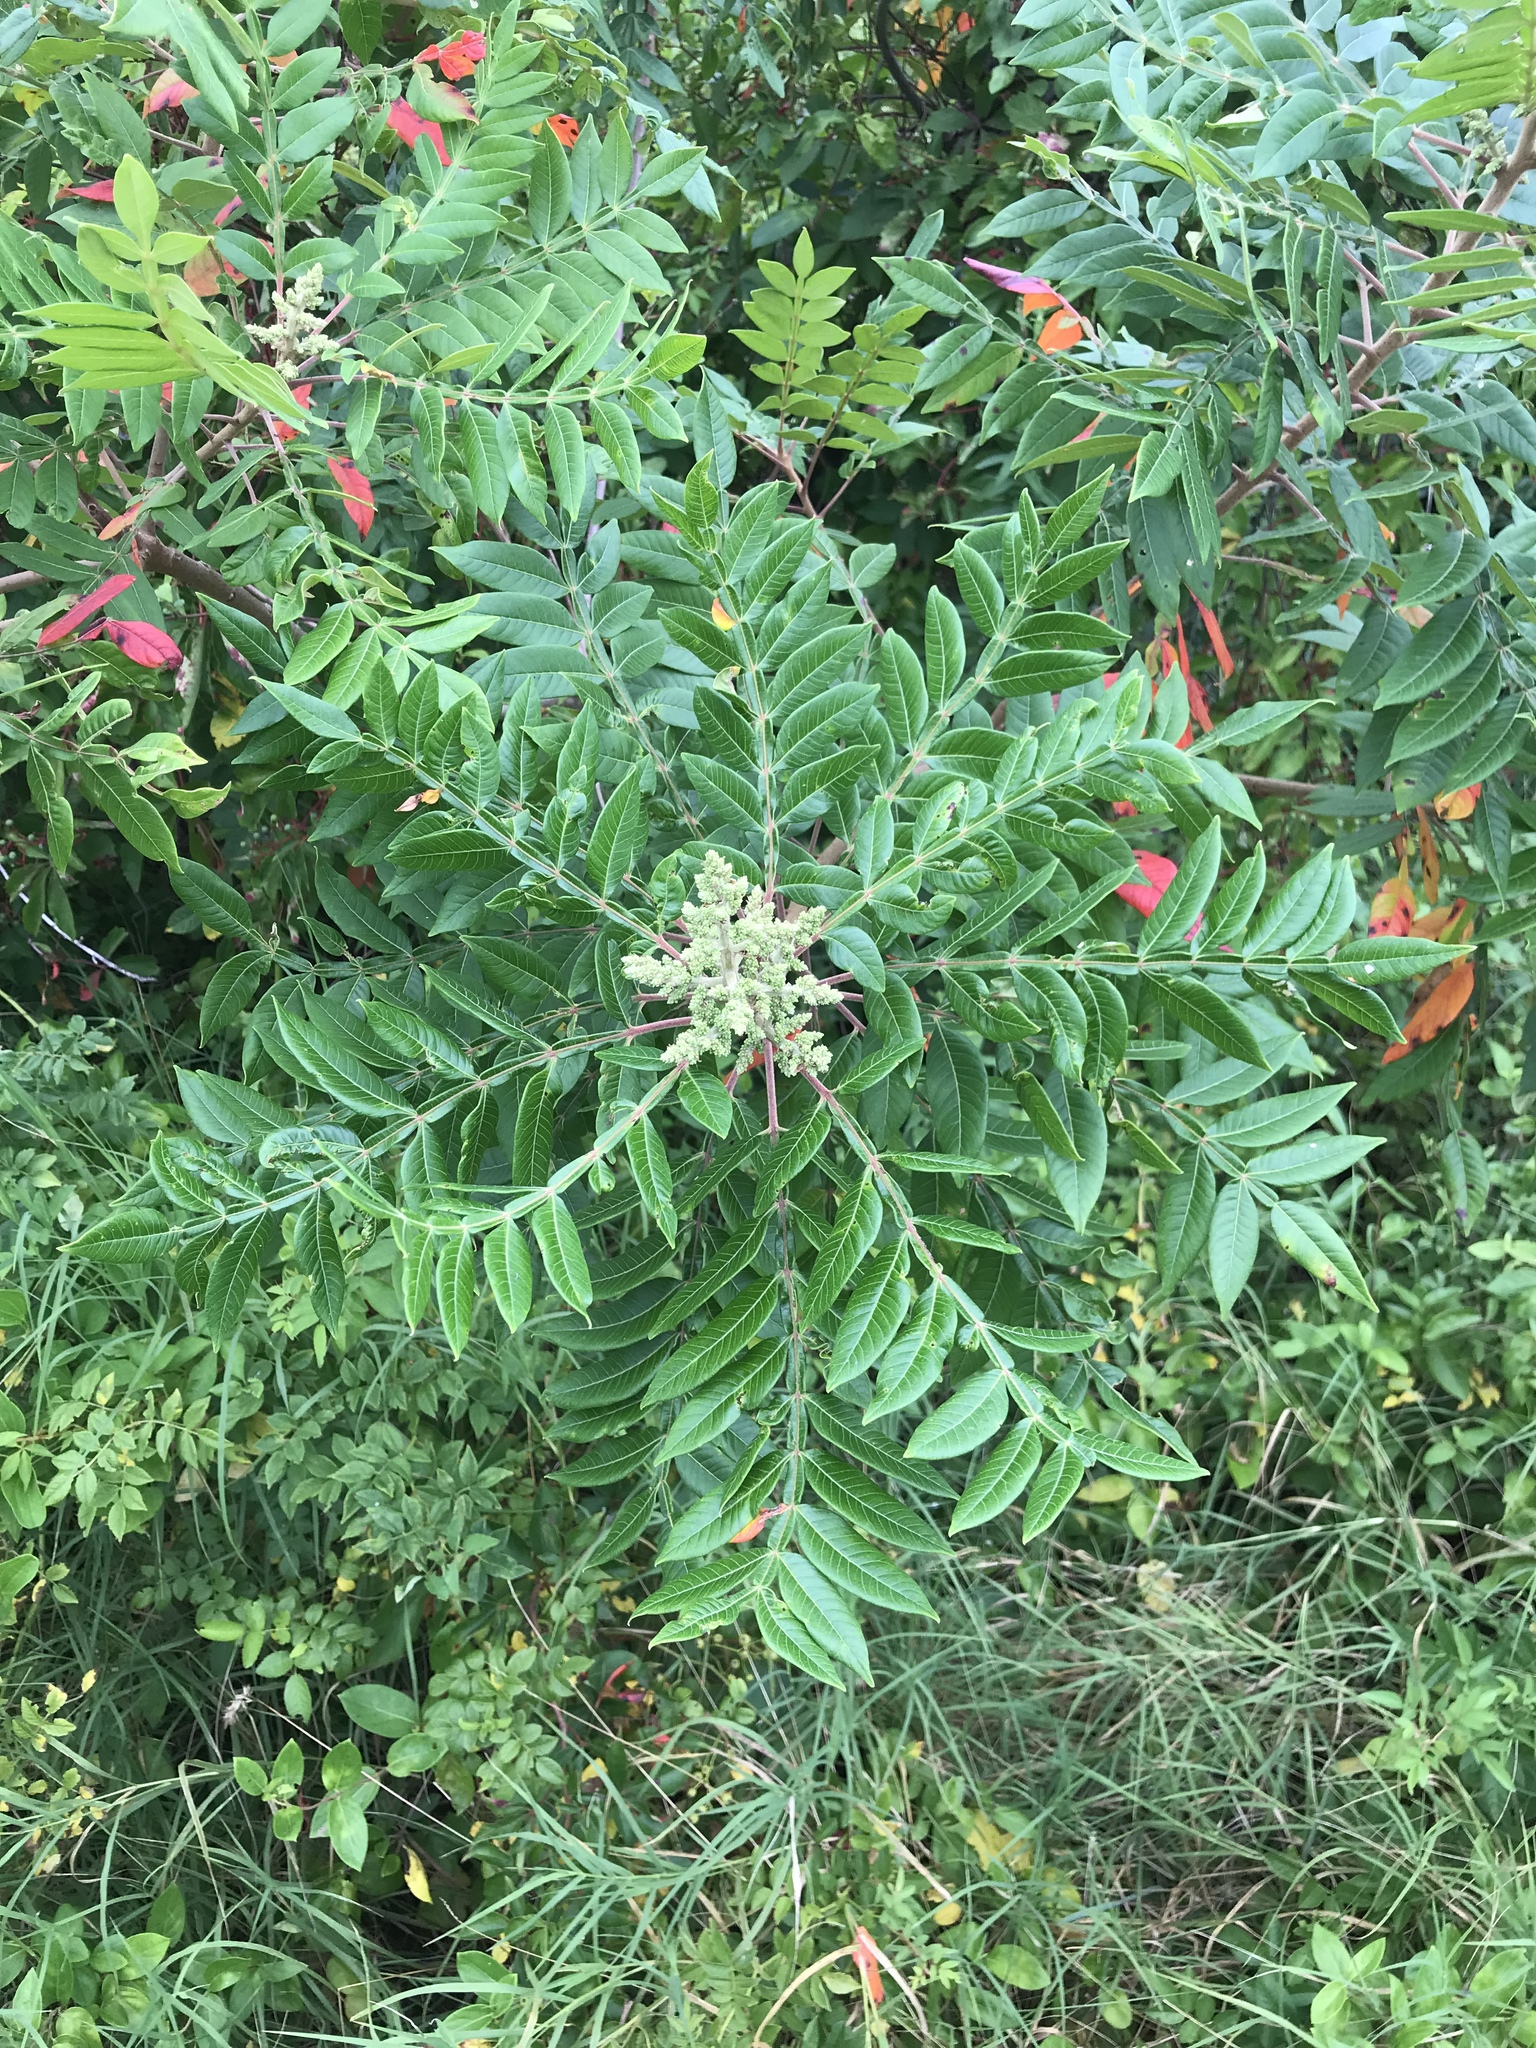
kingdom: Plantae
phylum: Tracheophyta
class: Magnoliopsida
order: Sapindales
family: Anacardiaceae
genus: Rhus
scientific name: Rhus copallina
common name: Shining sumac
